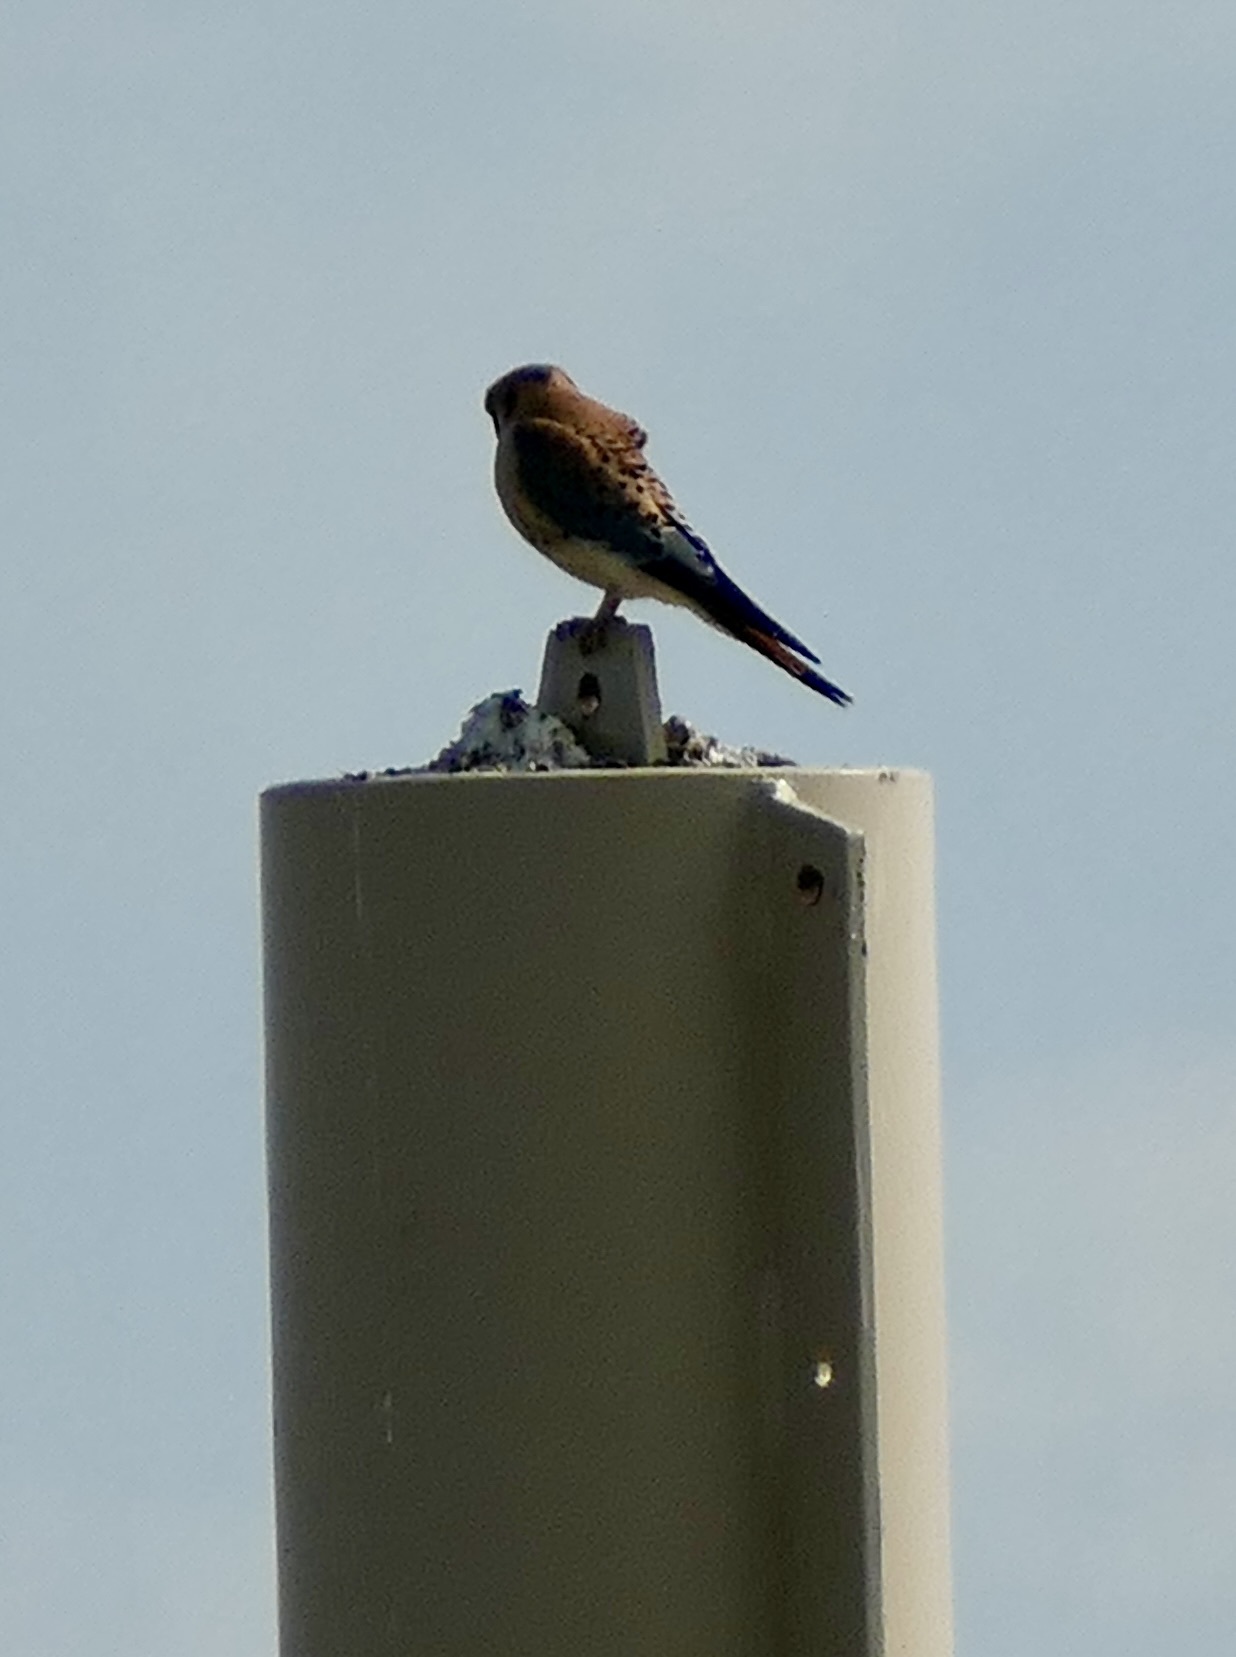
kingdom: Animalia
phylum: Chordata
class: Aves
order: Falconiformes
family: Falconidae
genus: Falco
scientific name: Falco sparverius
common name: American kestrel
